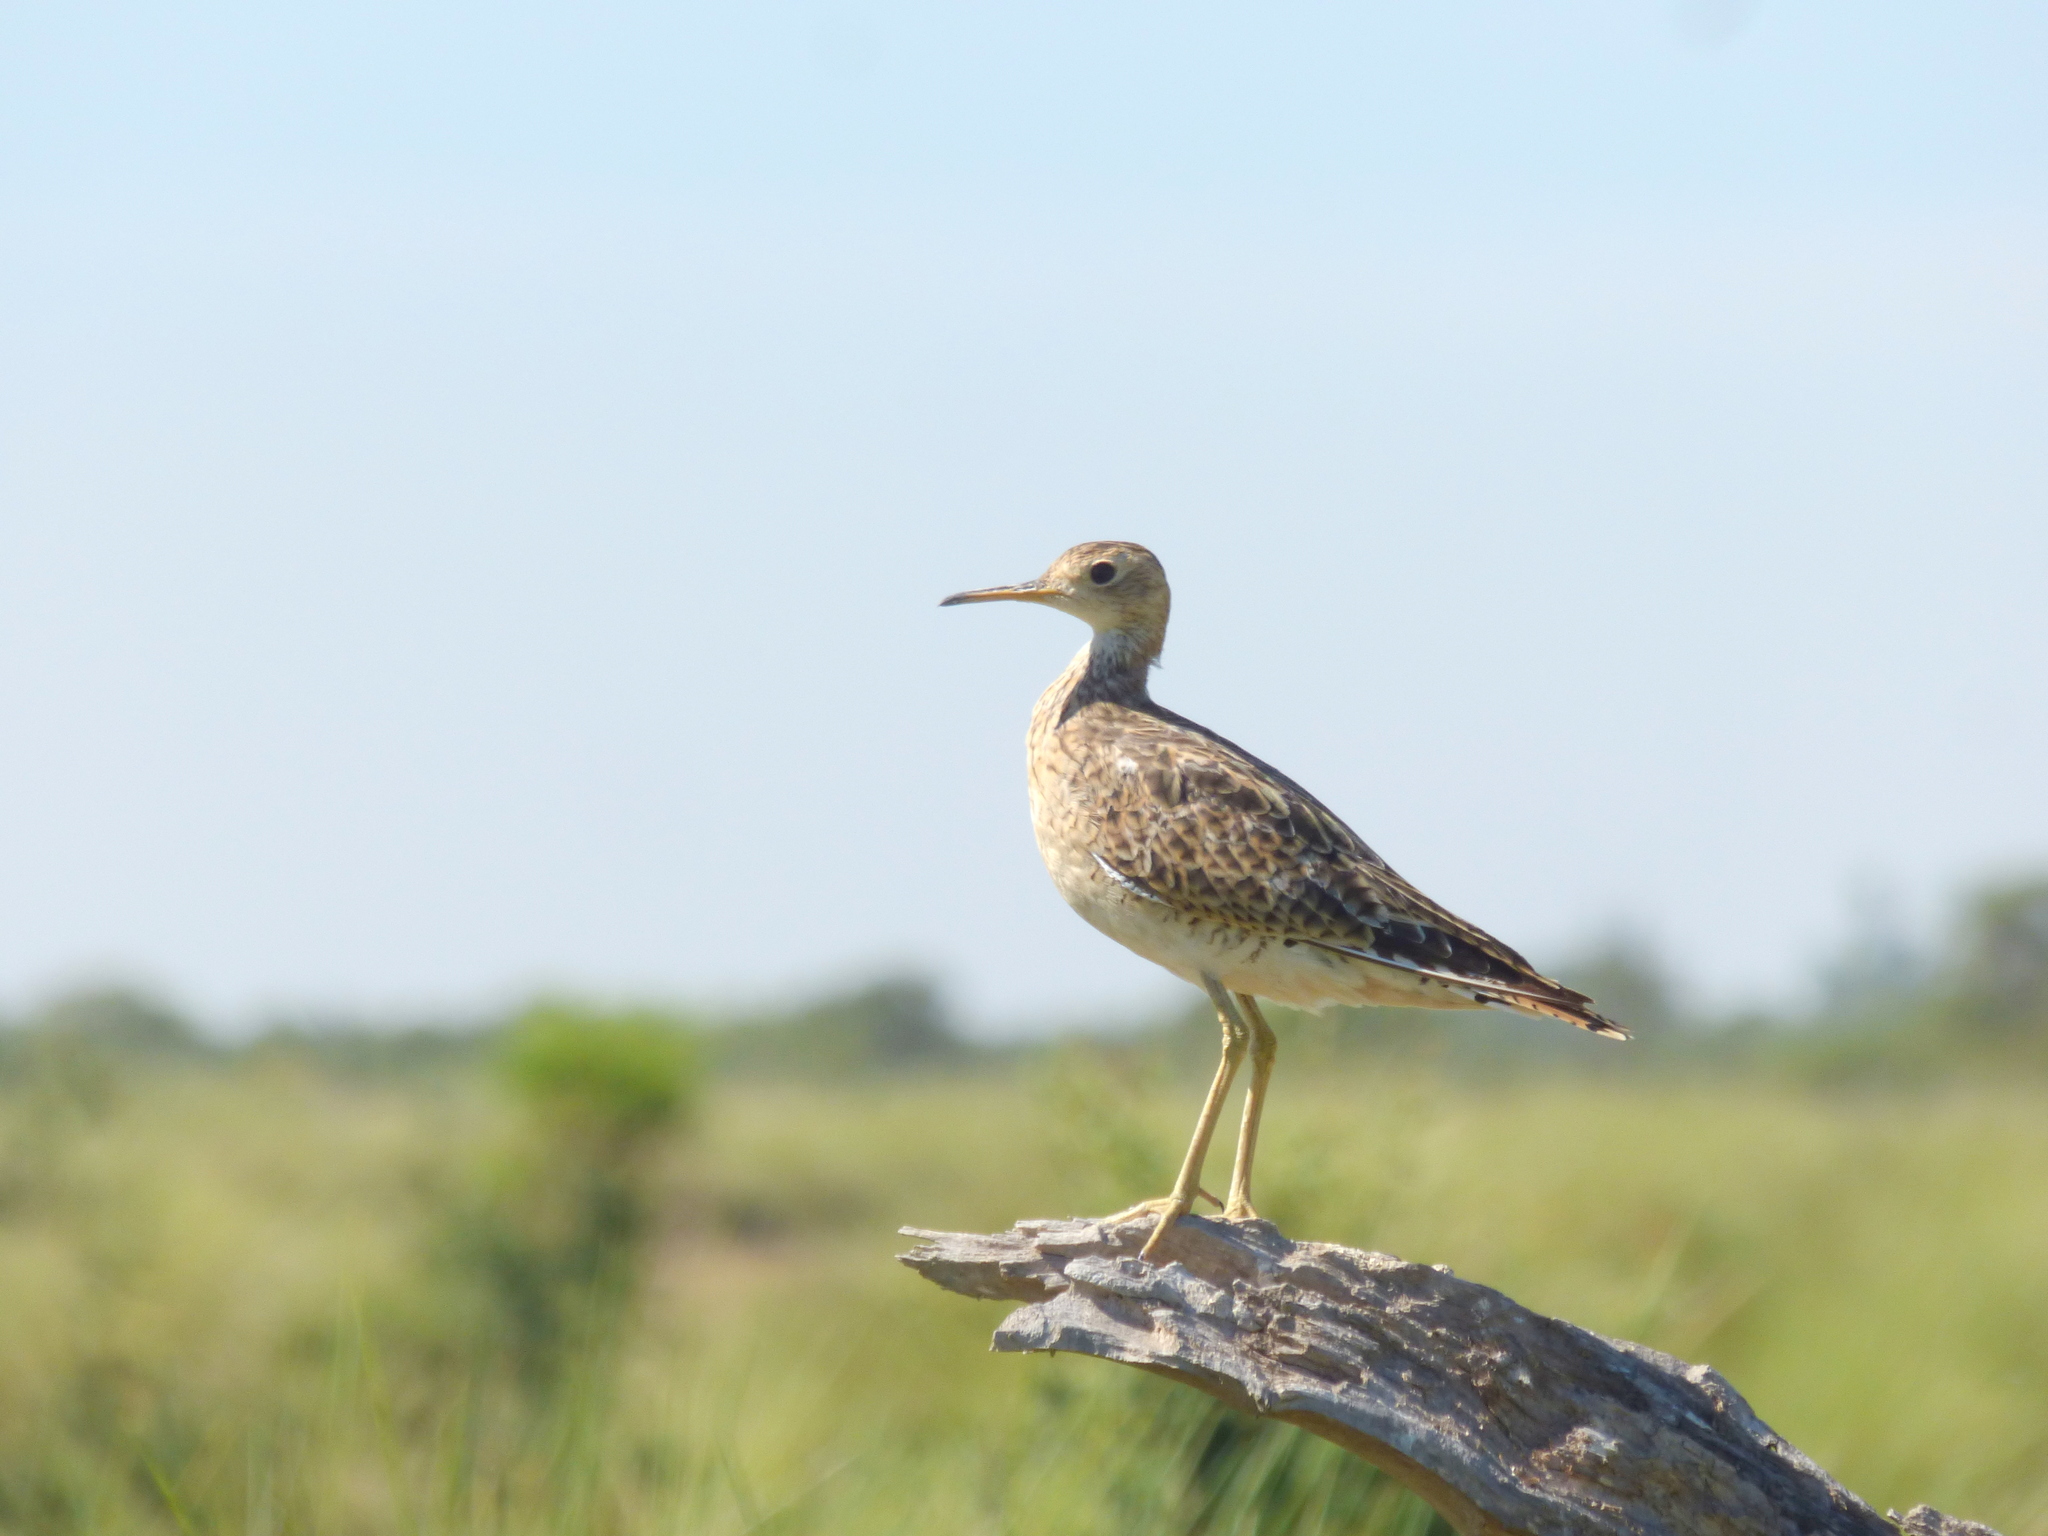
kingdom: Animalia
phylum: Chordata
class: Aves
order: Charadriiformes
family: Scolopacidae
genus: Bartramia
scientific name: Bartramia longicauda
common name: Upland sandpiper
